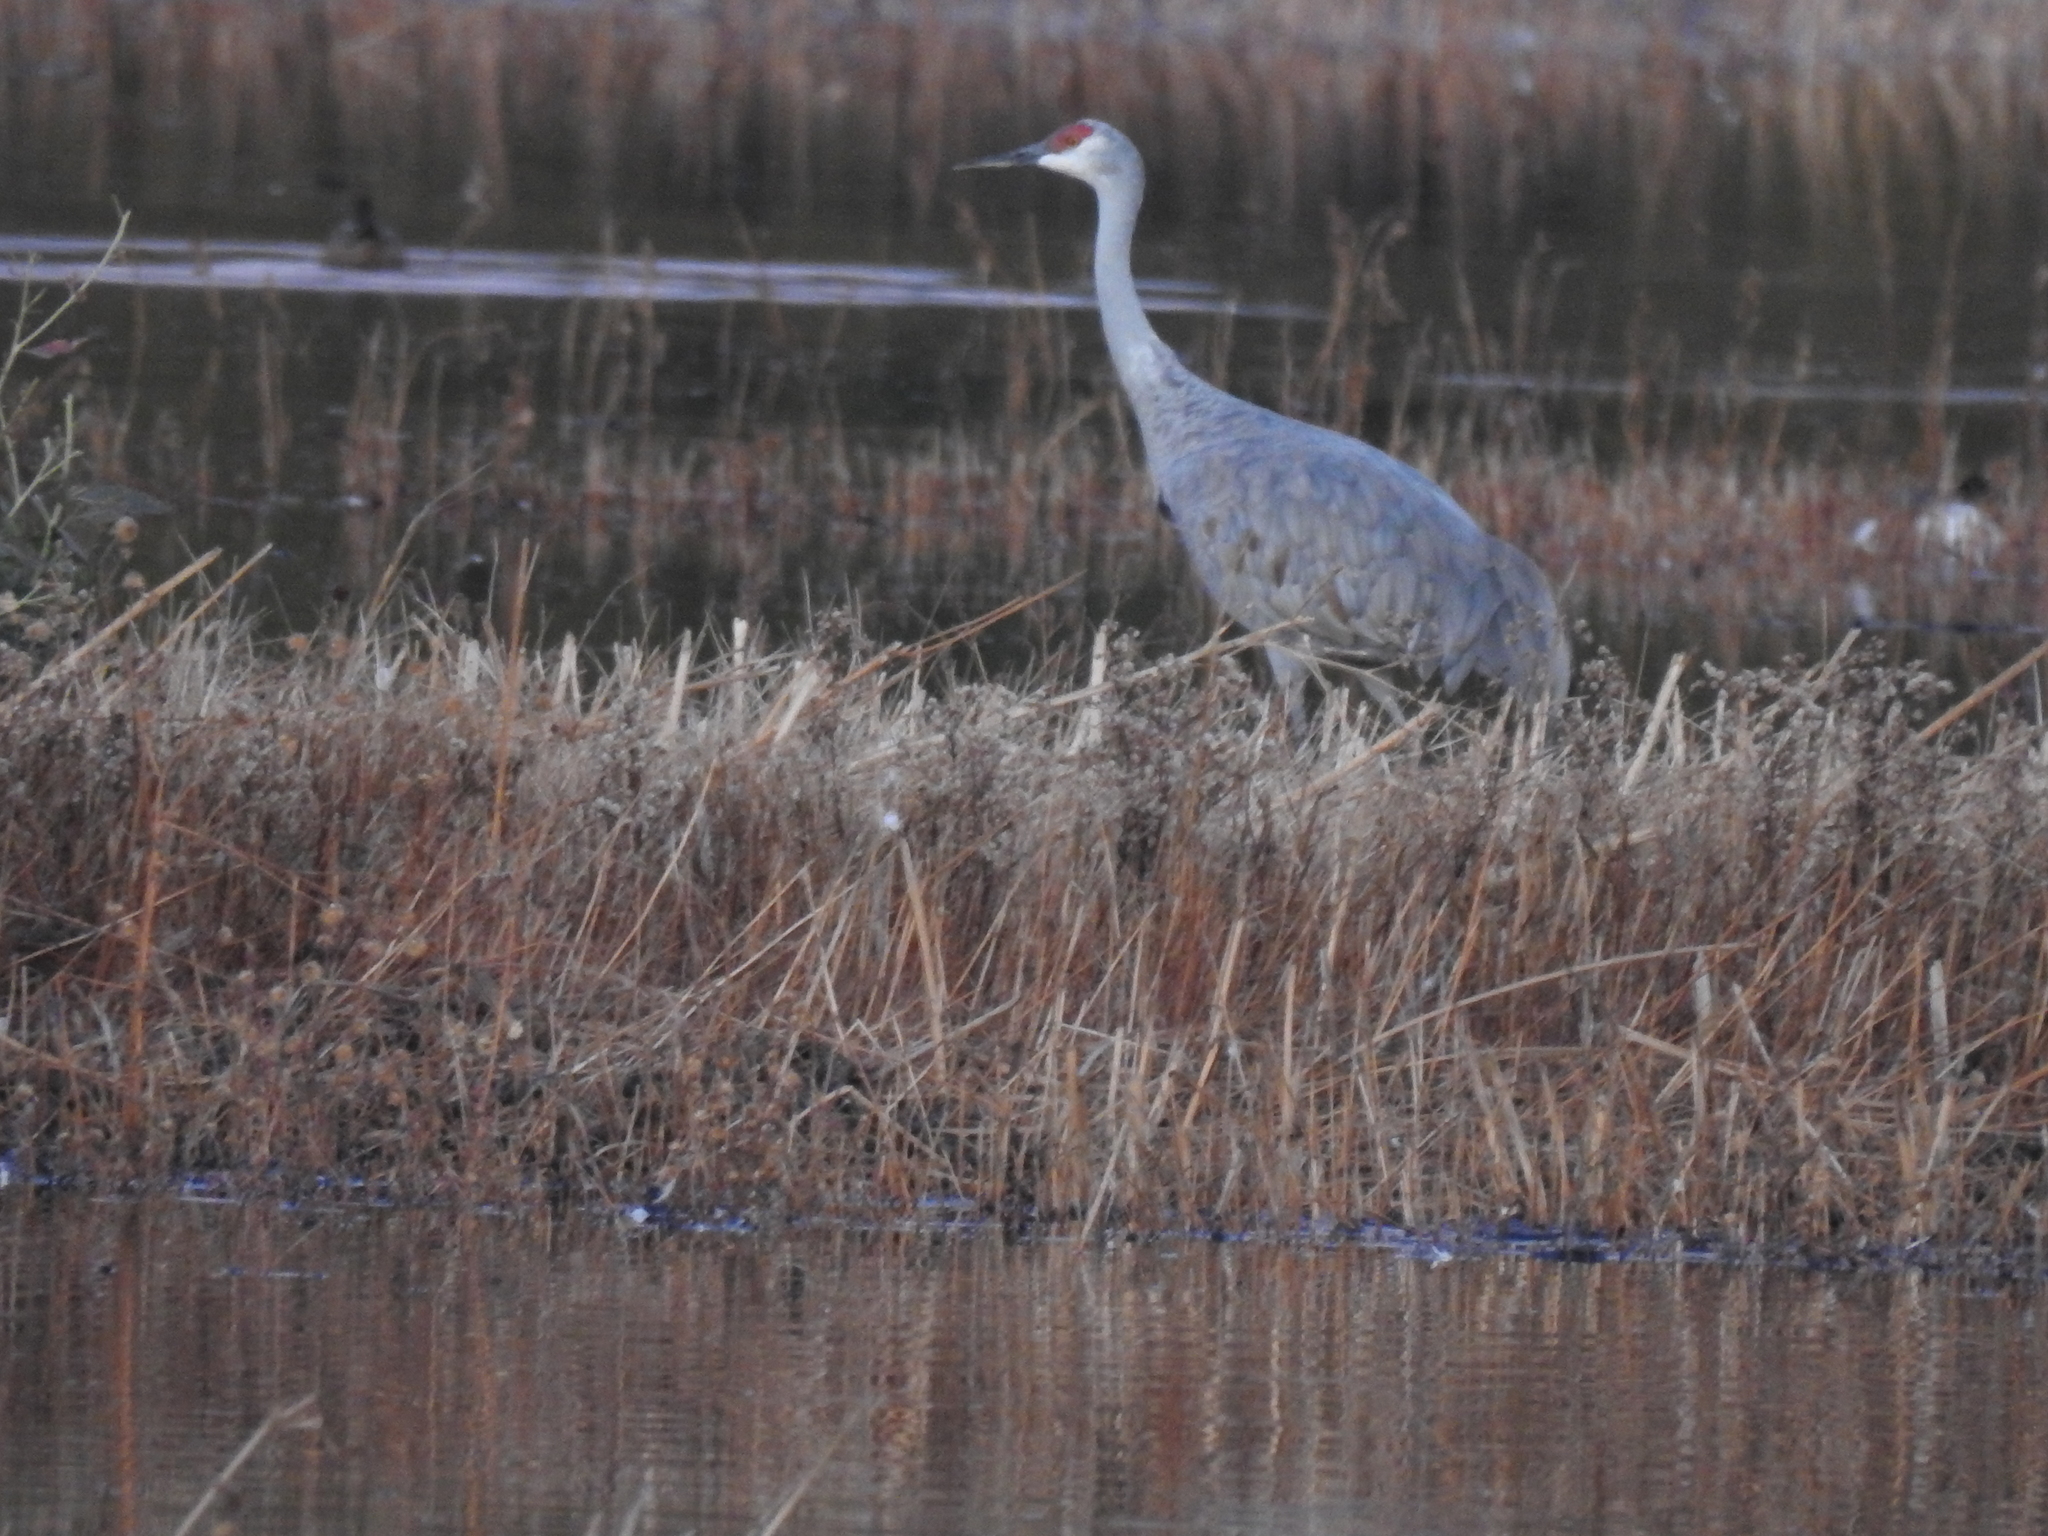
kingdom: Animalia
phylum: Chordata
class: Aves
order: Gruiformes
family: Gruidae
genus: Grus
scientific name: Grus canadensis
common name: Sandhill crane
